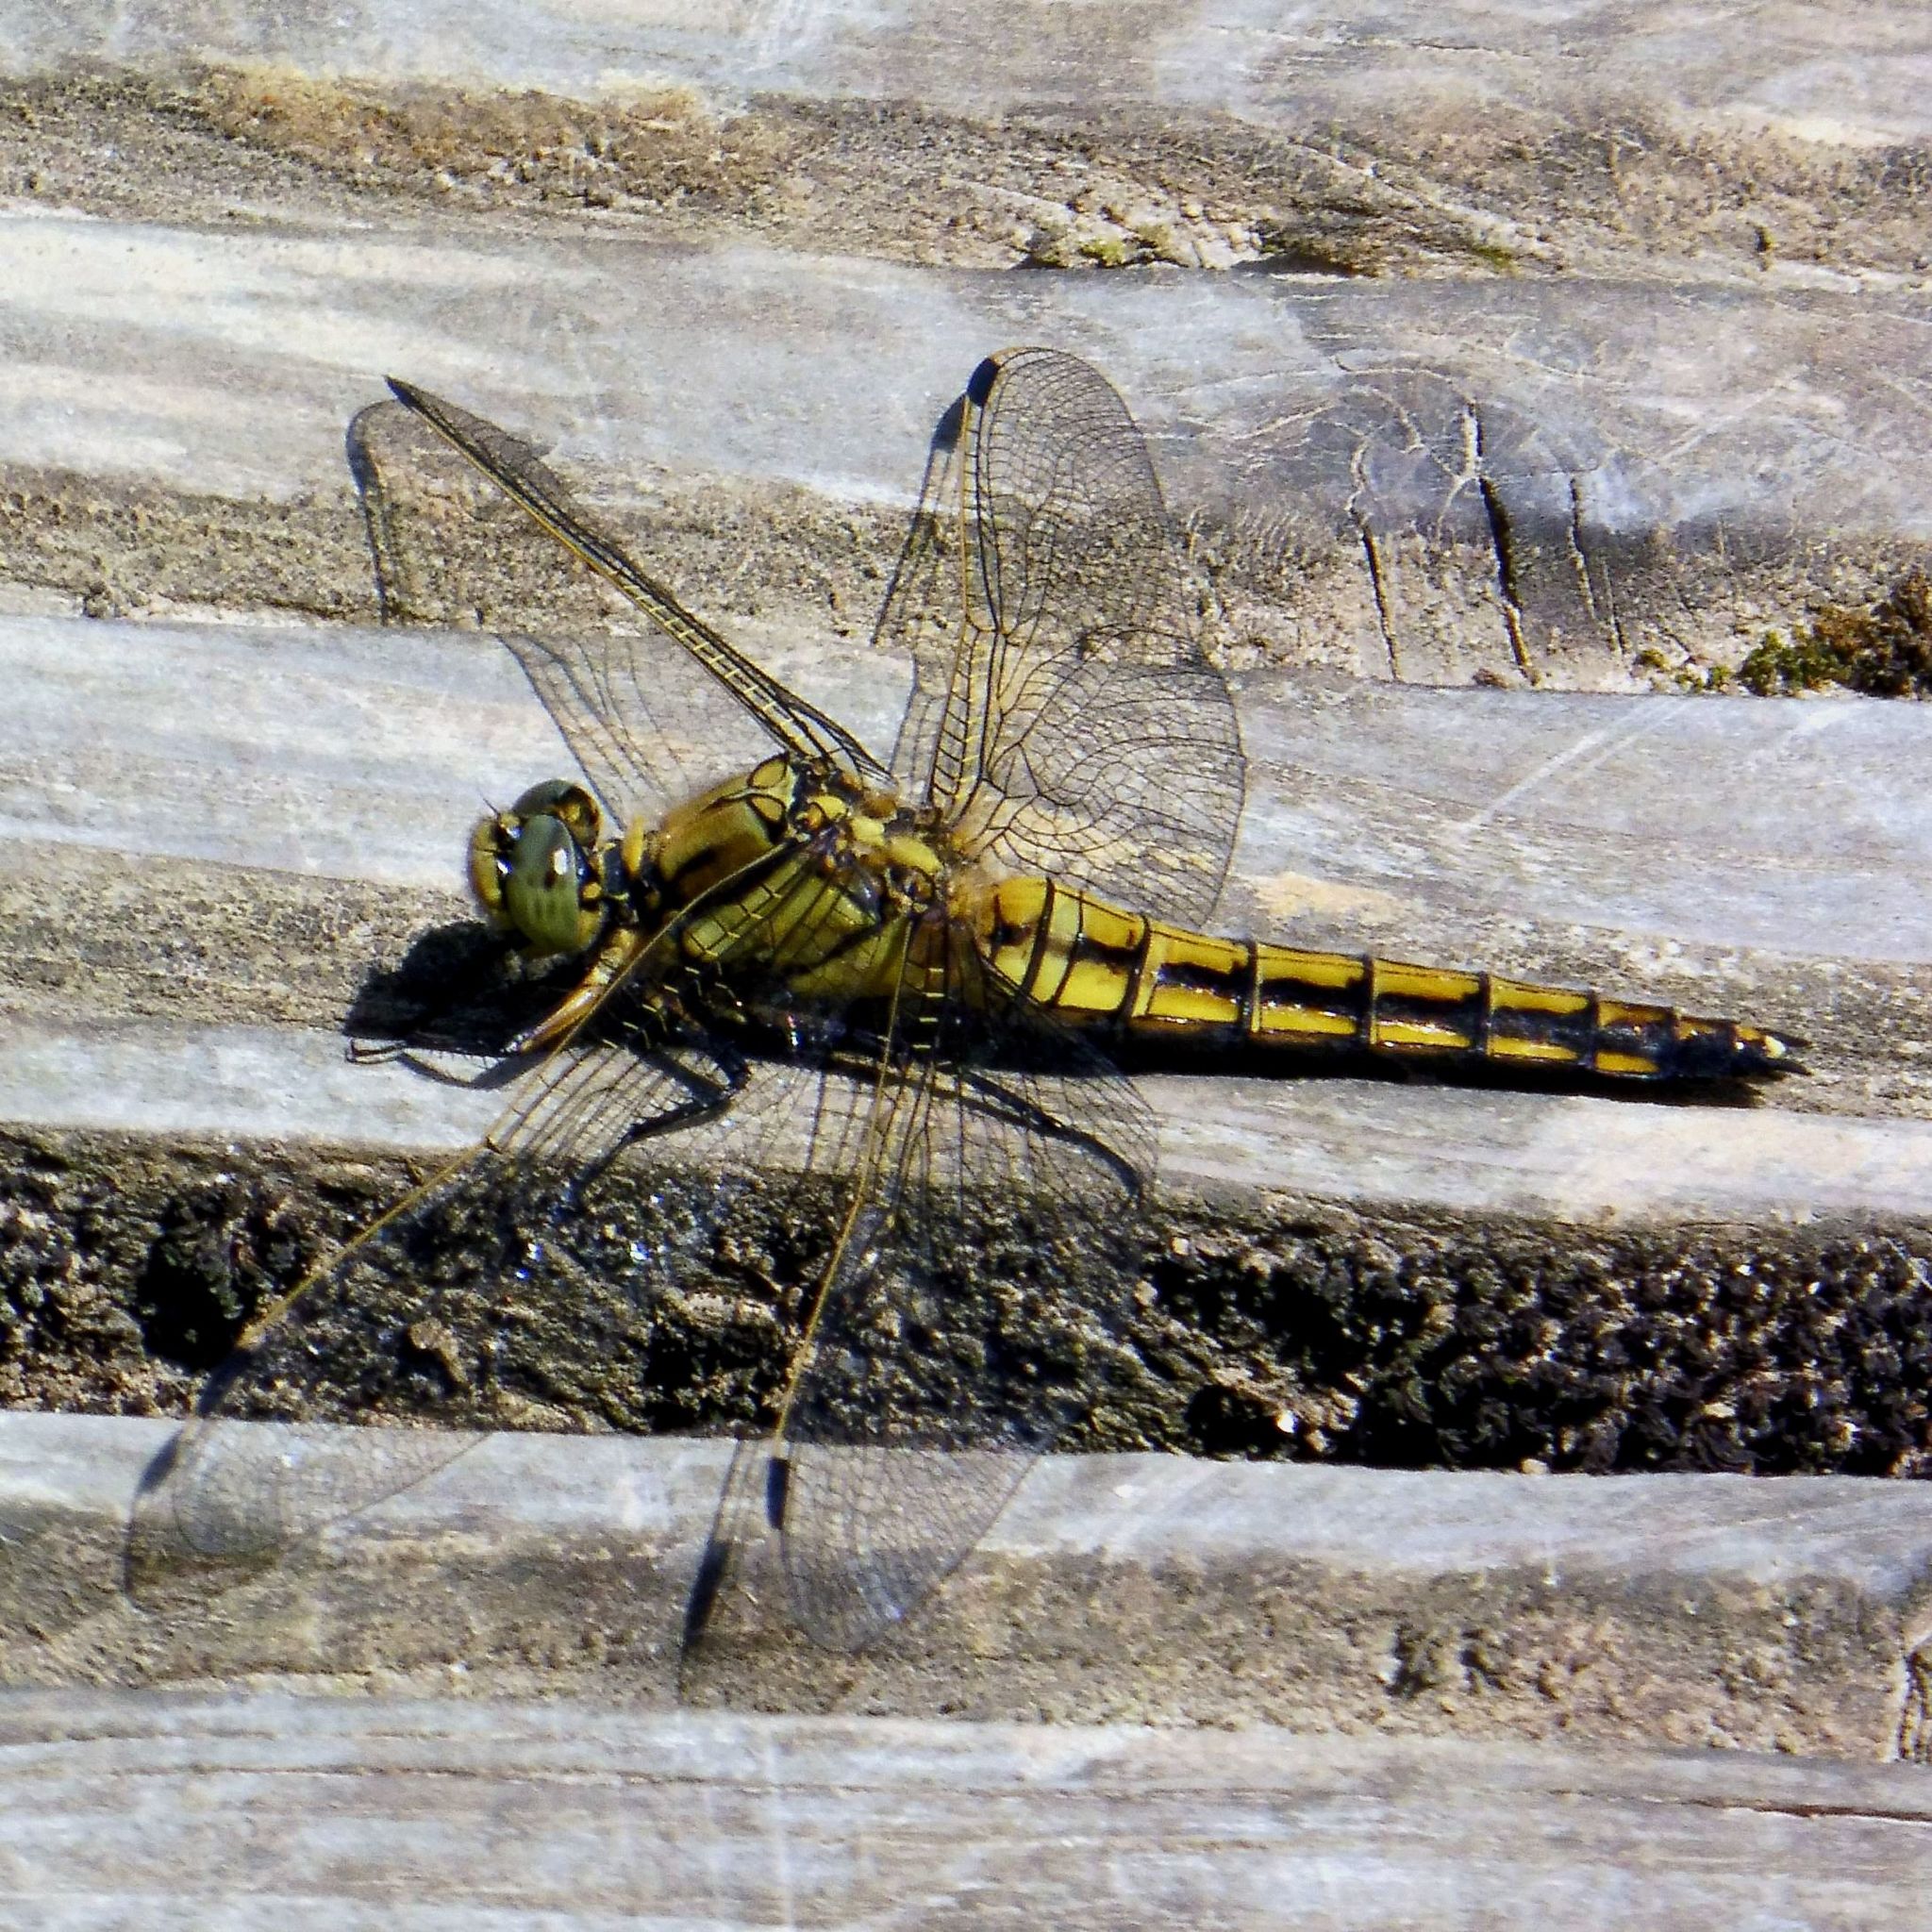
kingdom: Animalia
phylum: Arthropoda
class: Insecta
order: Odonata
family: Libellulidae
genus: Orthetrum
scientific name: Orthetrum cancellatum
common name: Black-tailed skimmer
